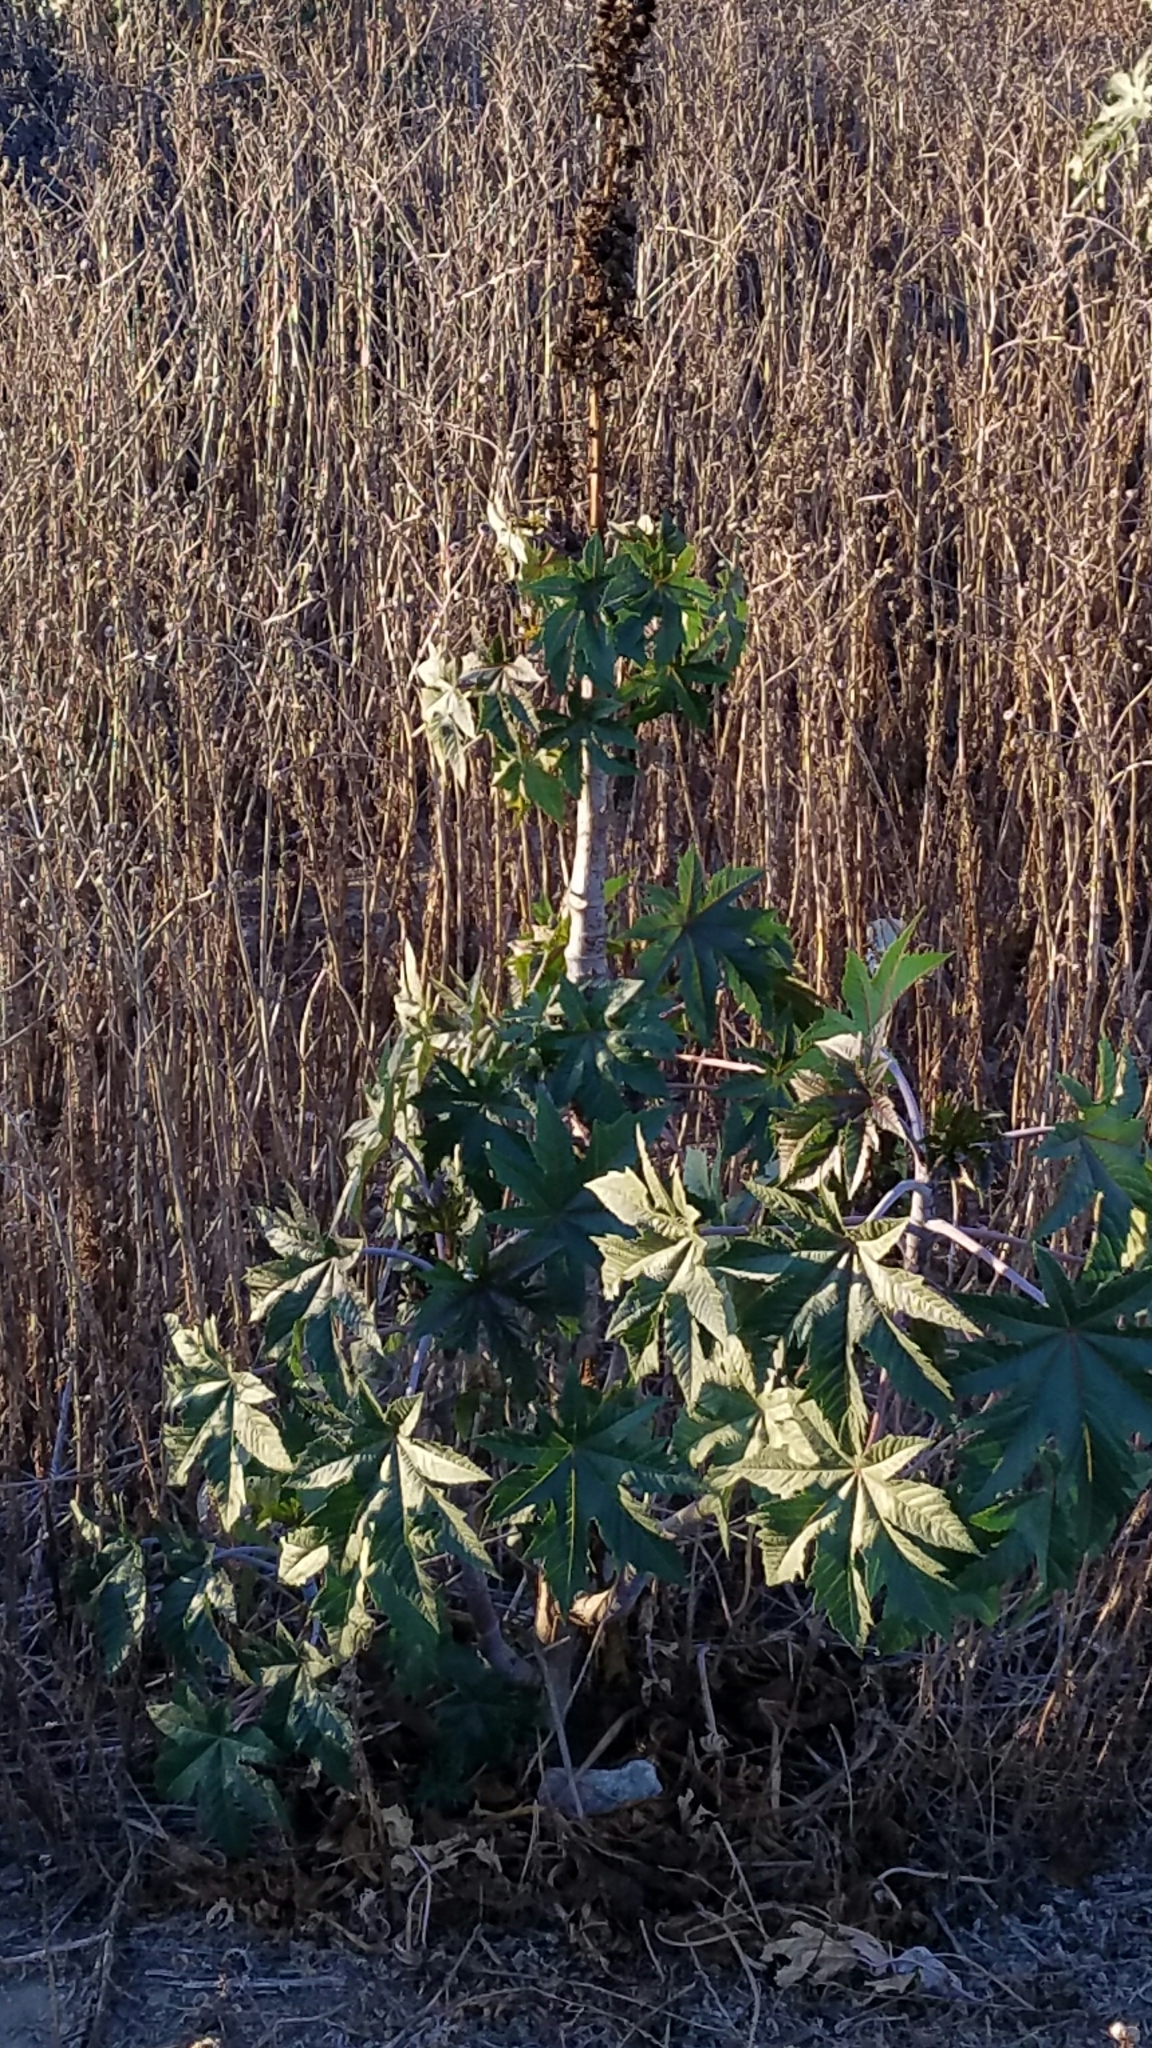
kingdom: Plantae
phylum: Tracheophyta
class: Magnoliopsida
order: Malpighiales
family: Euphorbiaceae
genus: Ricinus
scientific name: Ricinus communis
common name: Castor-oil-plant
